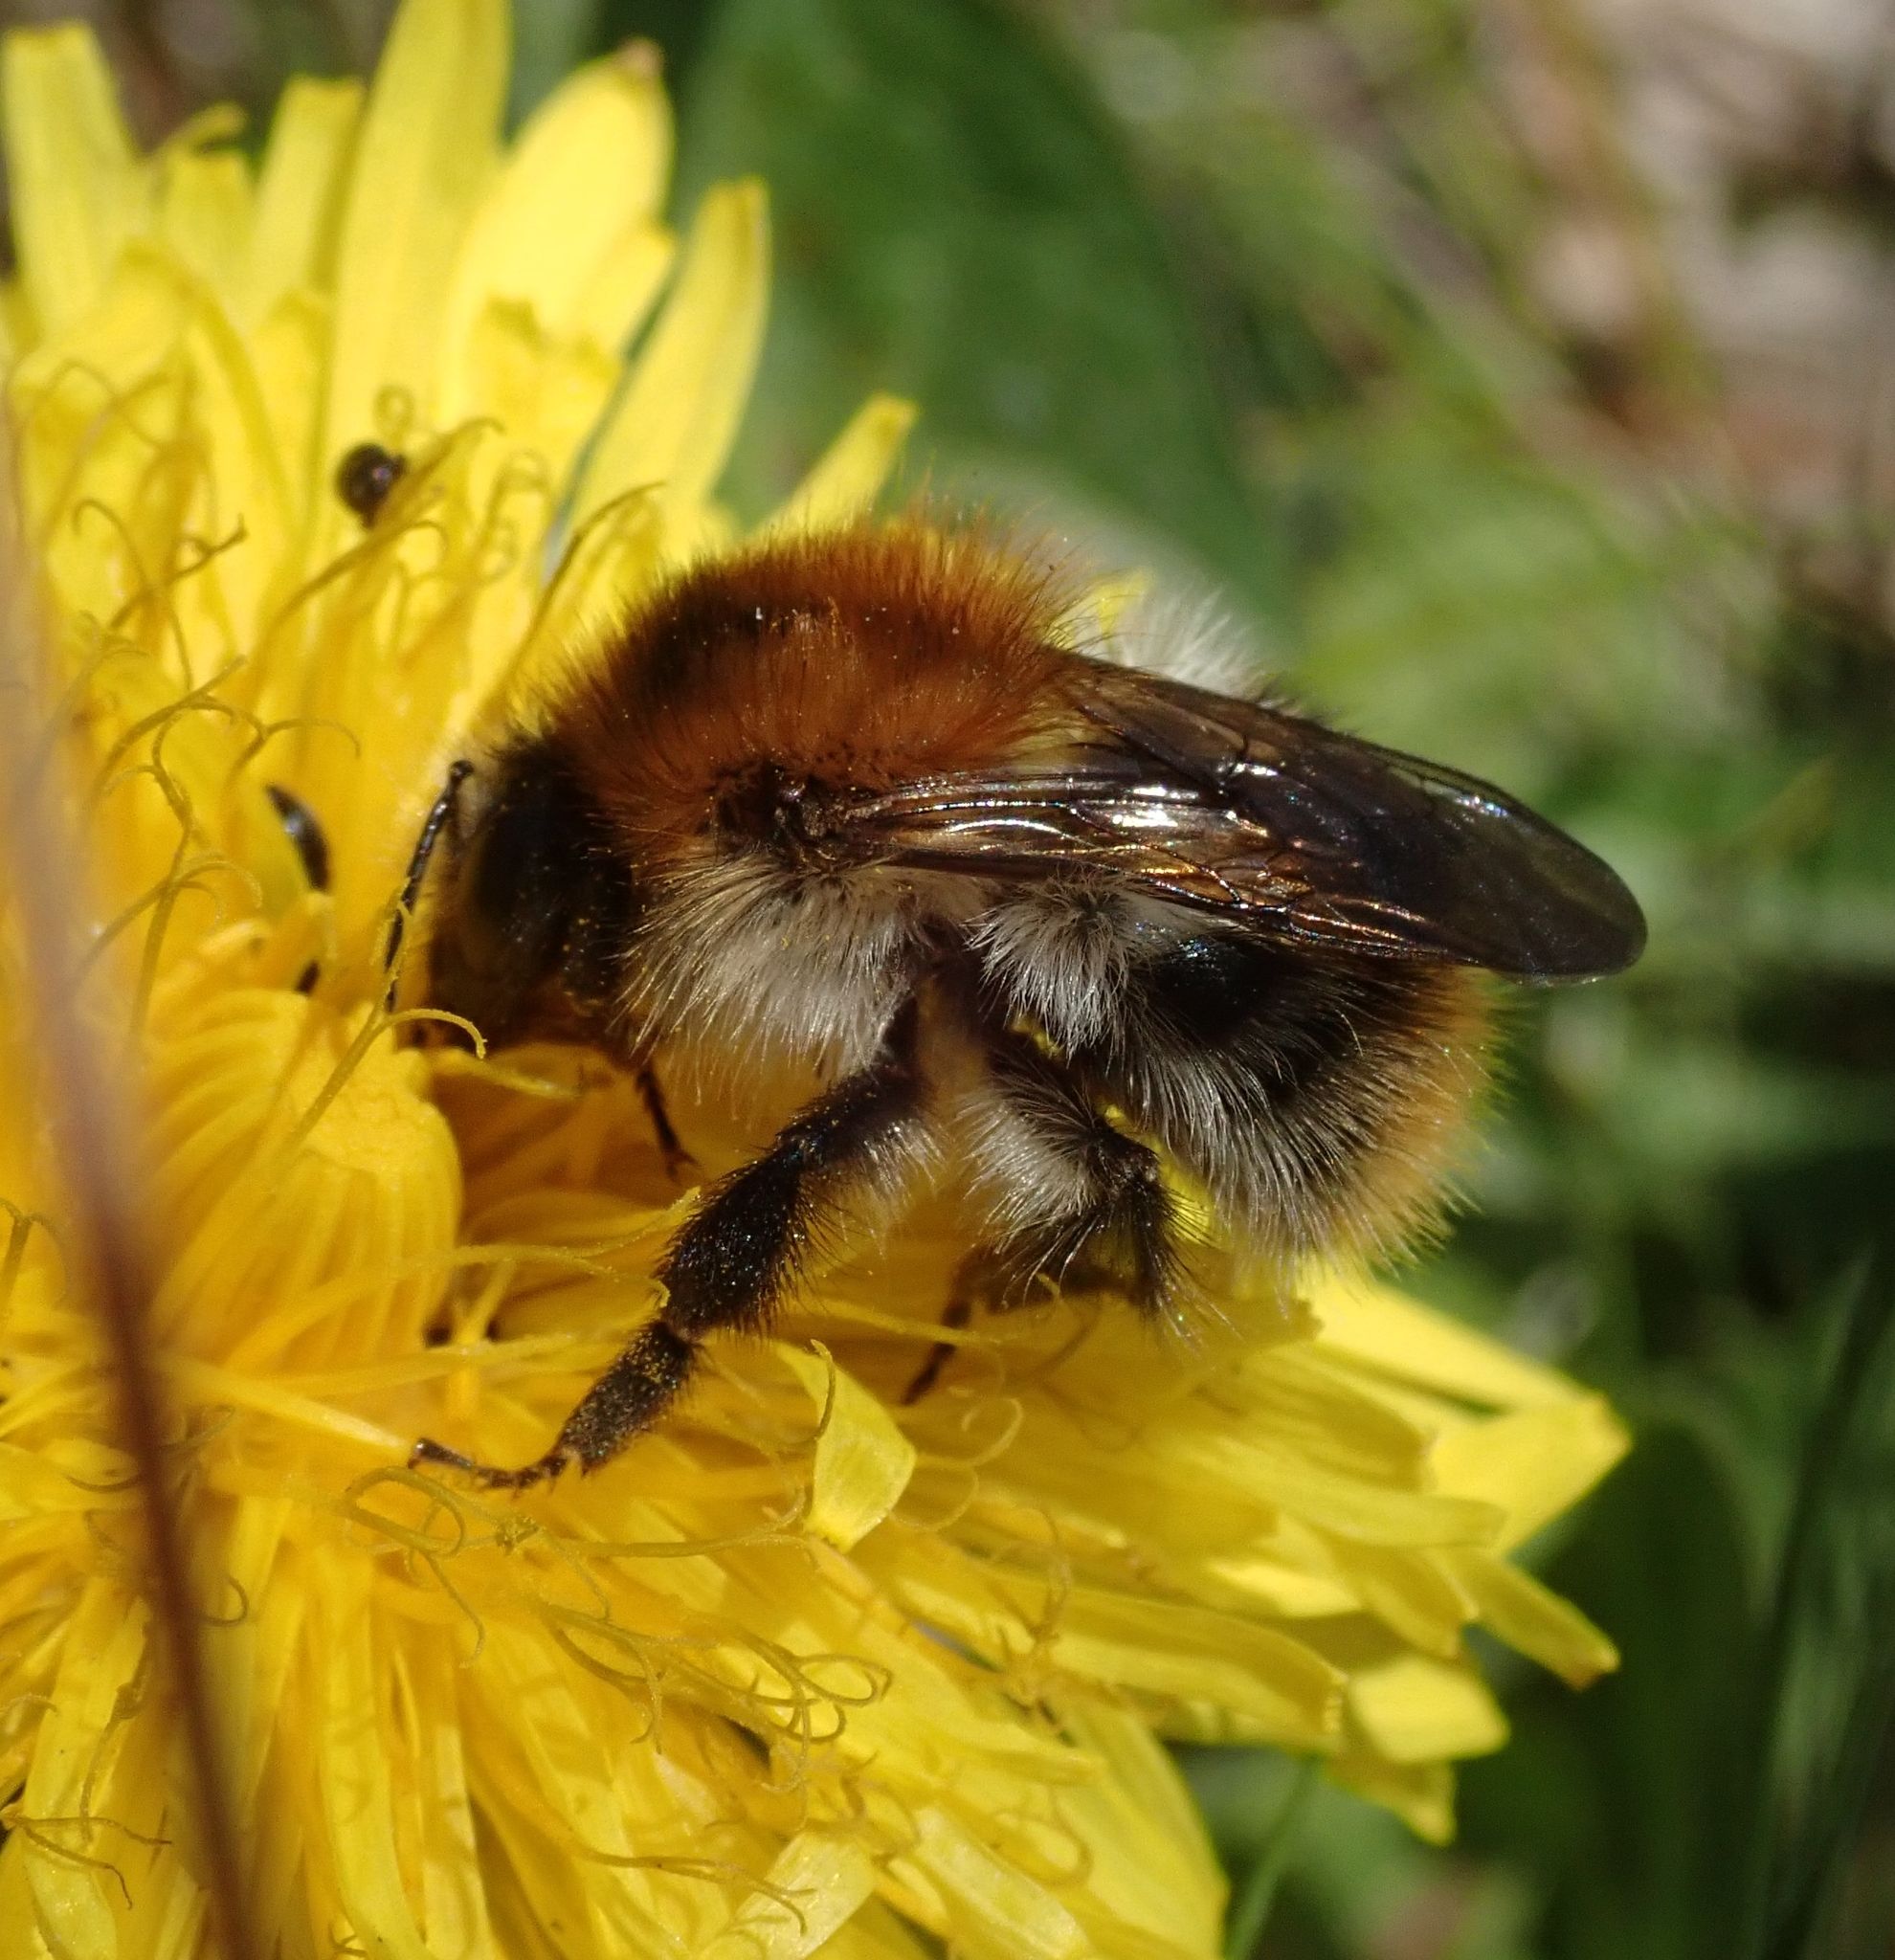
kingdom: Animalia
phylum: Arthropoda
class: Insecta
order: Hymenoptera
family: Apidae
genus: Bombus
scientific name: Bombus pascuorum
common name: Common carder bee
